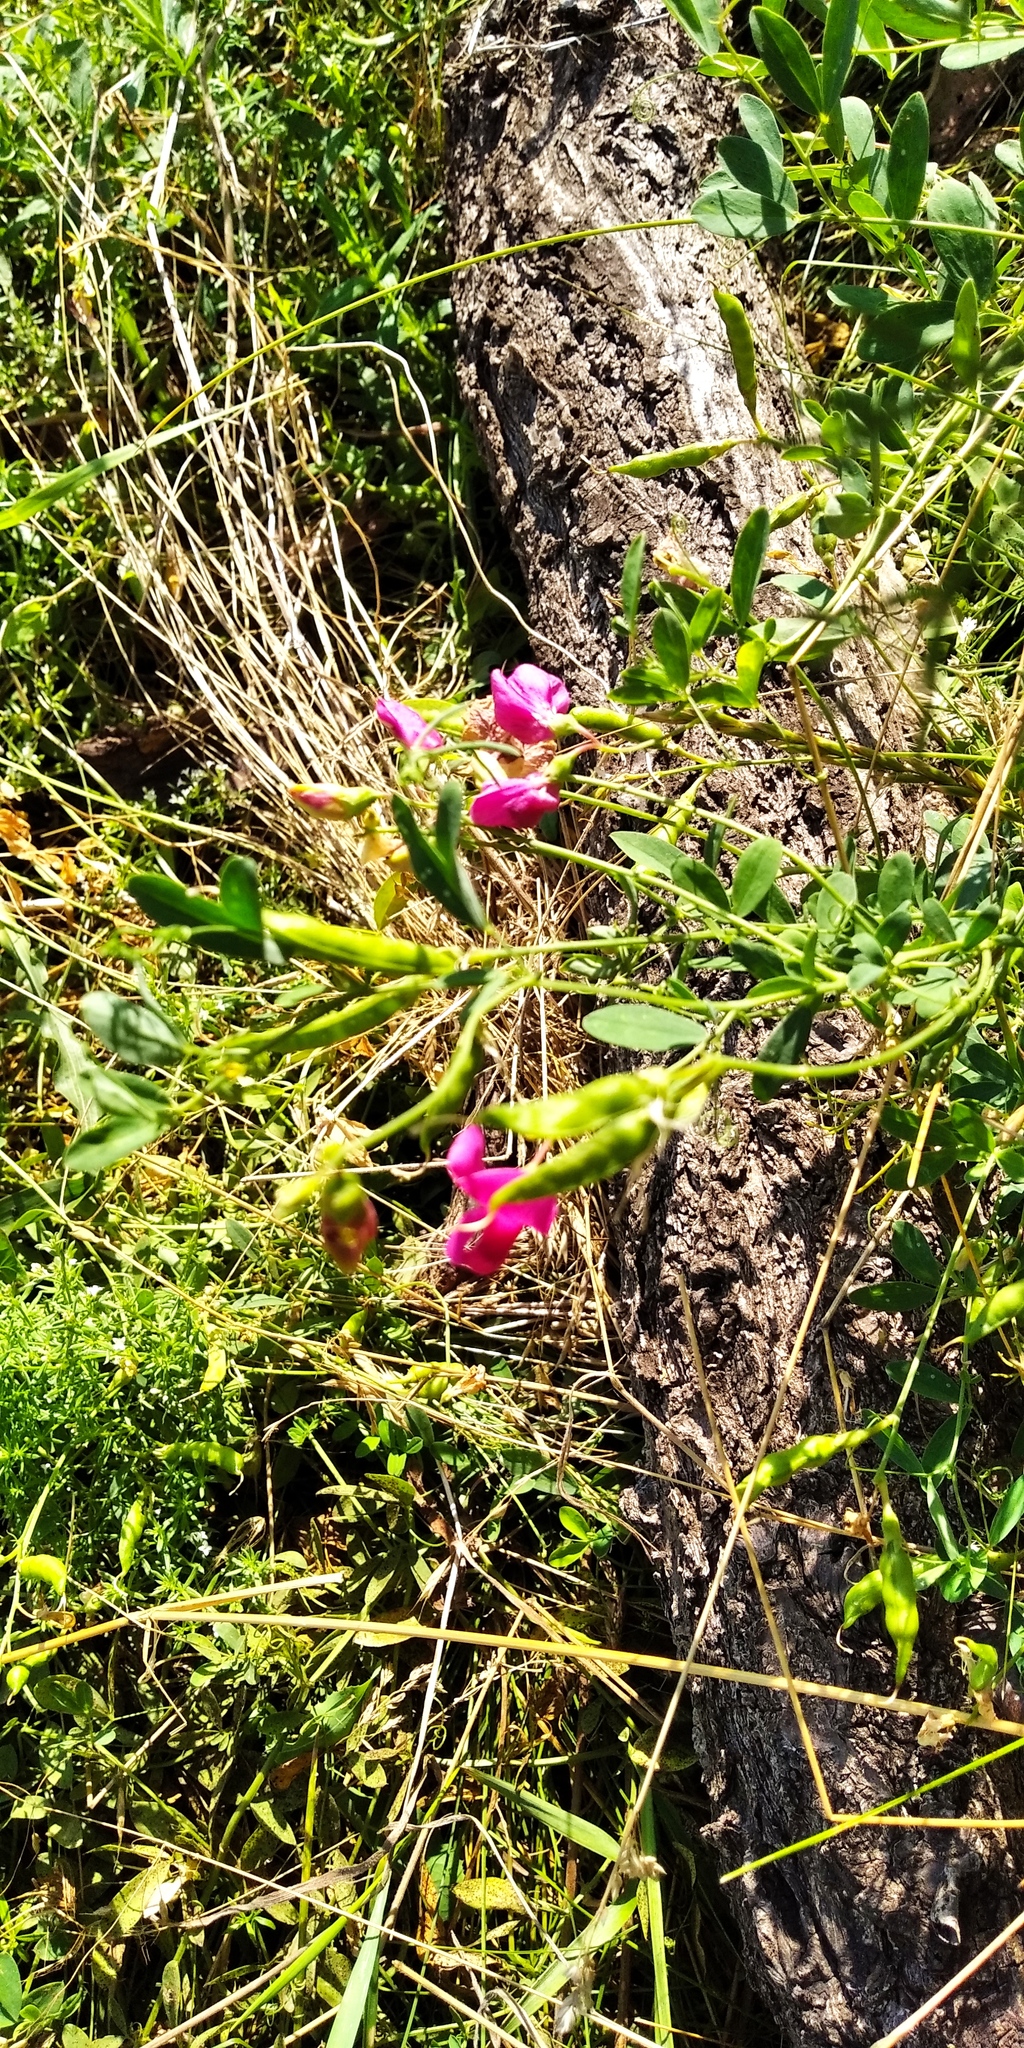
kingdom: Plantae
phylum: Tracheophyta
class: Magnoliopsida
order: Fabales
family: Fabaceae
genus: Lathyrus
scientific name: Lathyrus tuberosus
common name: Tuberous pea
